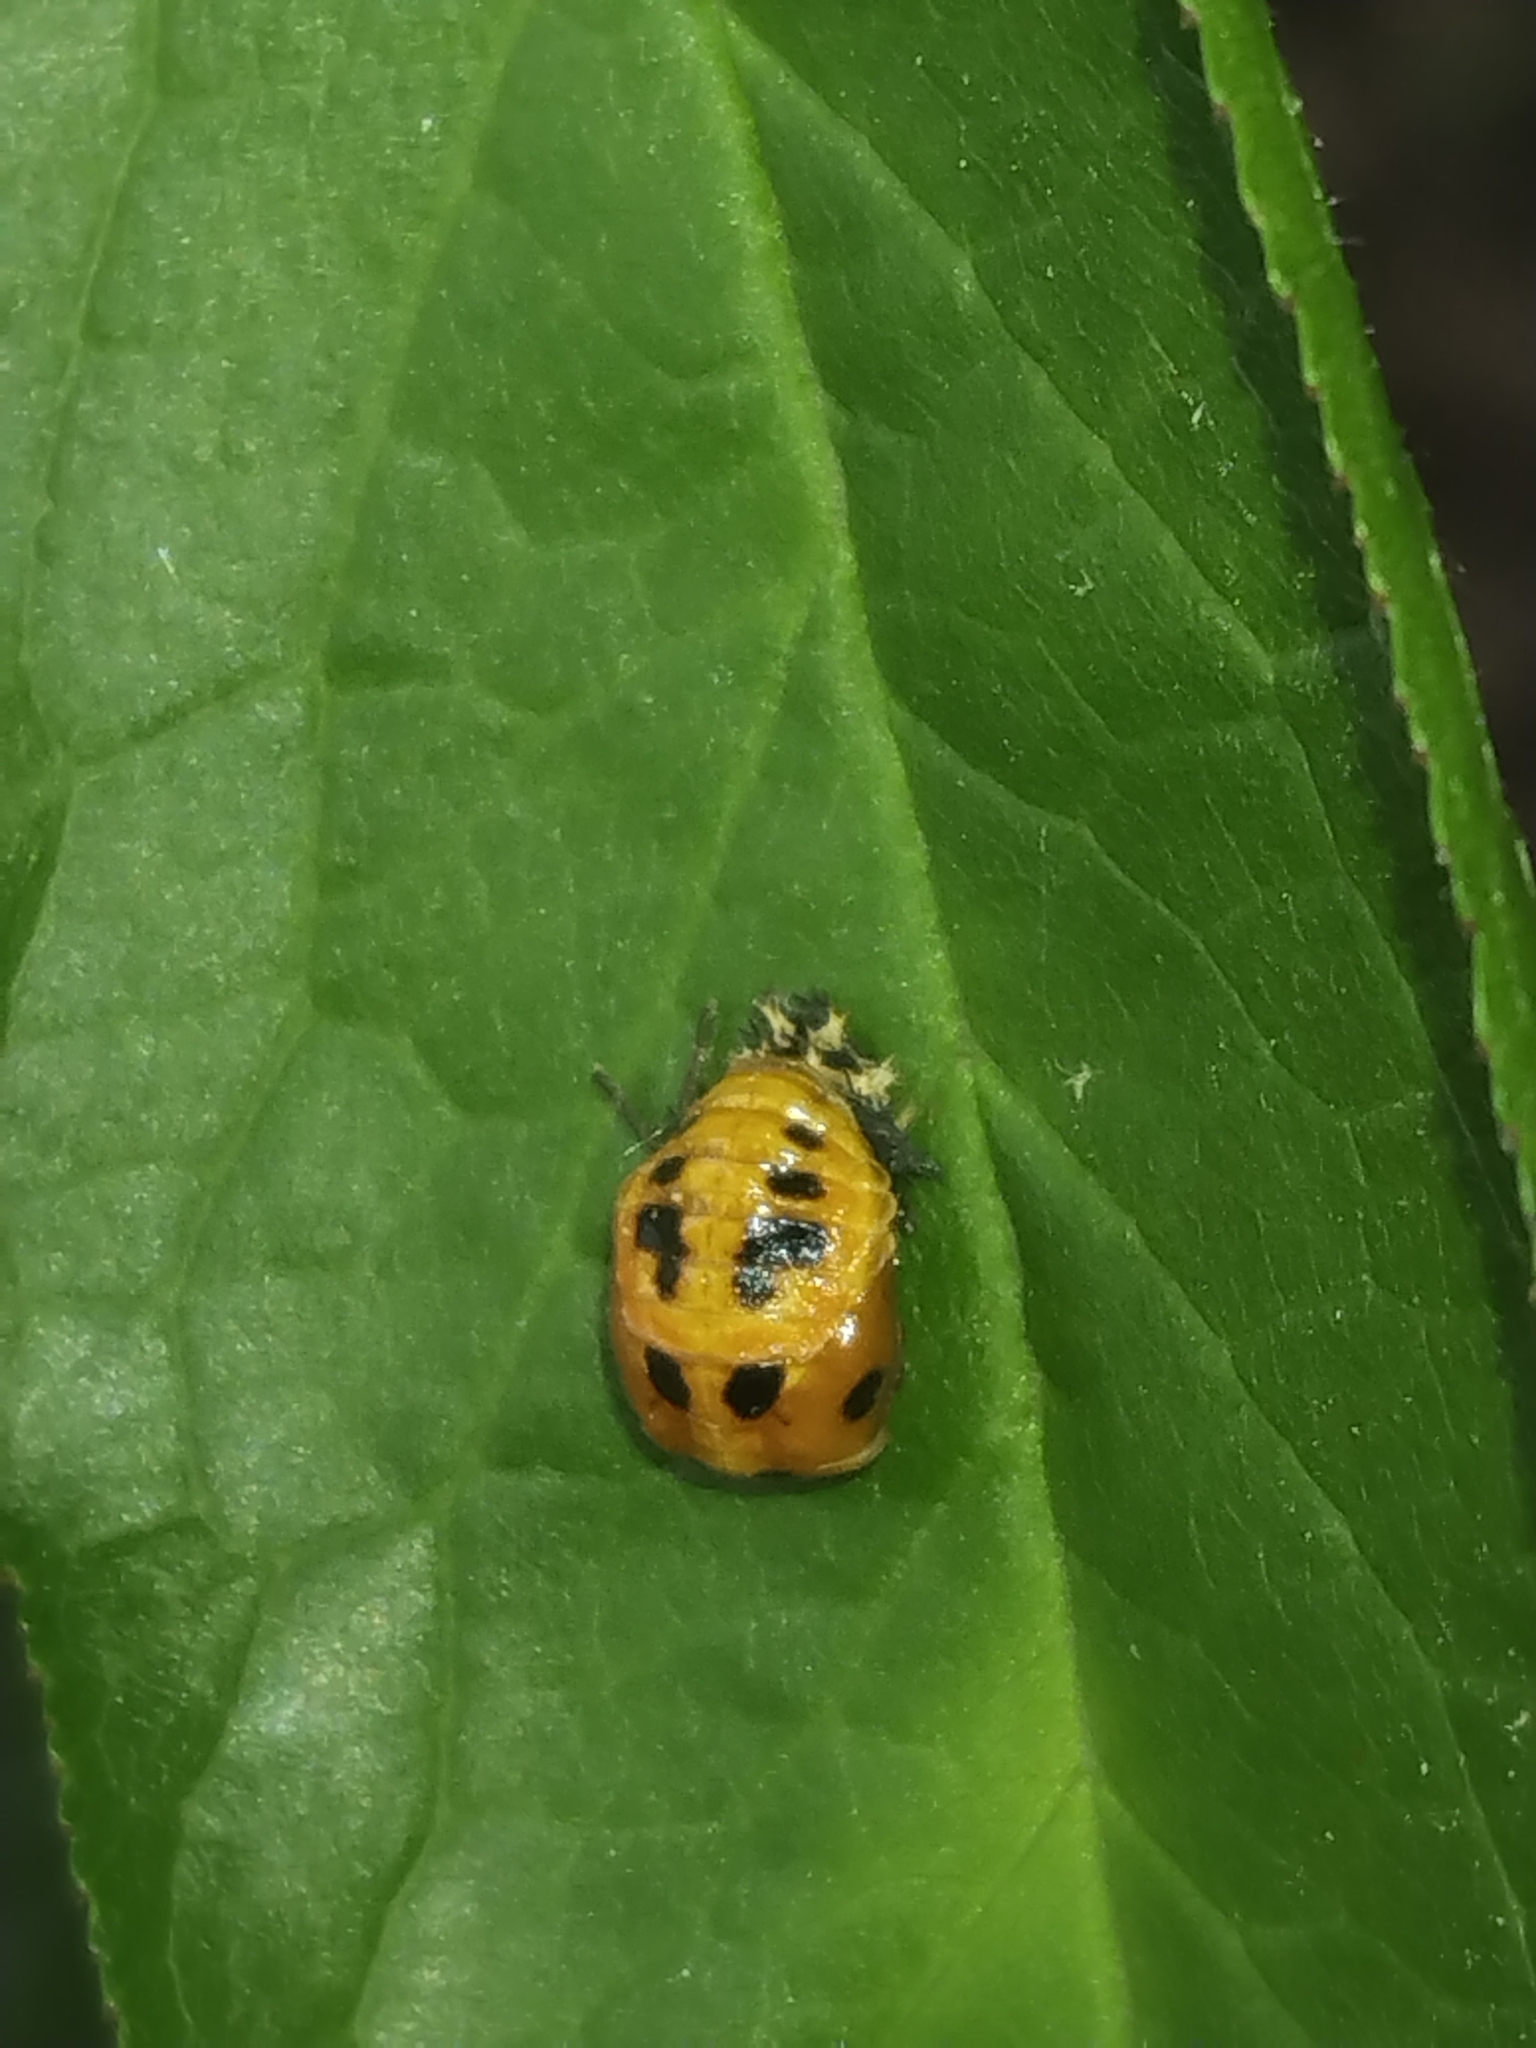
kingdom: Animalia
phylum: Arthropoda
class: Insecta
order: Coleoptera
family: Coccinellidae
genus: Harmonia
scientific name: Harmonia axyridis
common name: Harlequin ladybird
